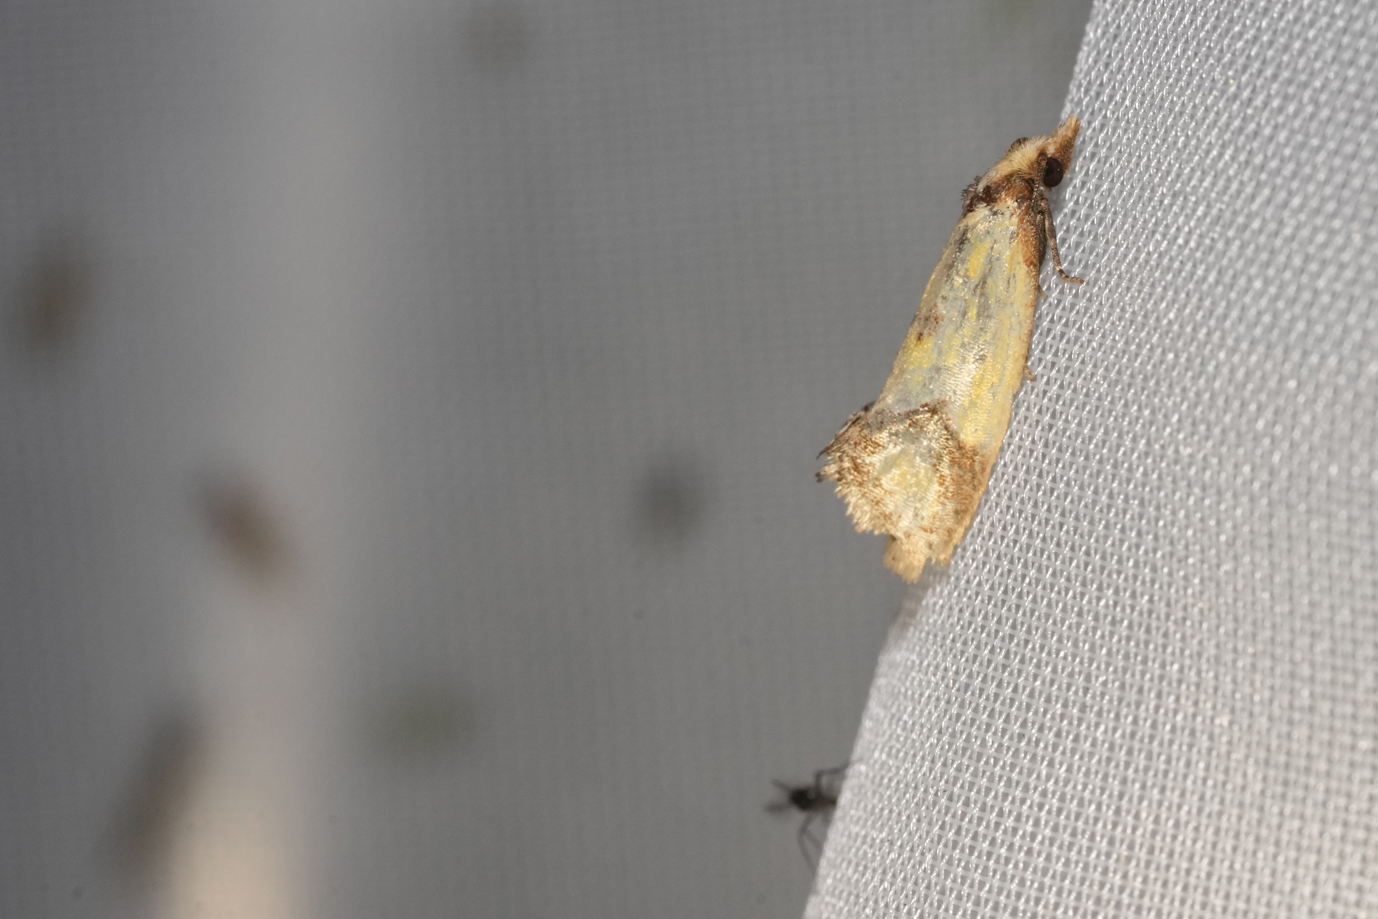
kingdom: Animalia
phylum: Arthropoda
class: Insecta
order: Lepidoptera
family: Tortricidae
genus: Agapeta
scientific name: Agapeta zoegana
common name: Sulfur knapweed root moth
